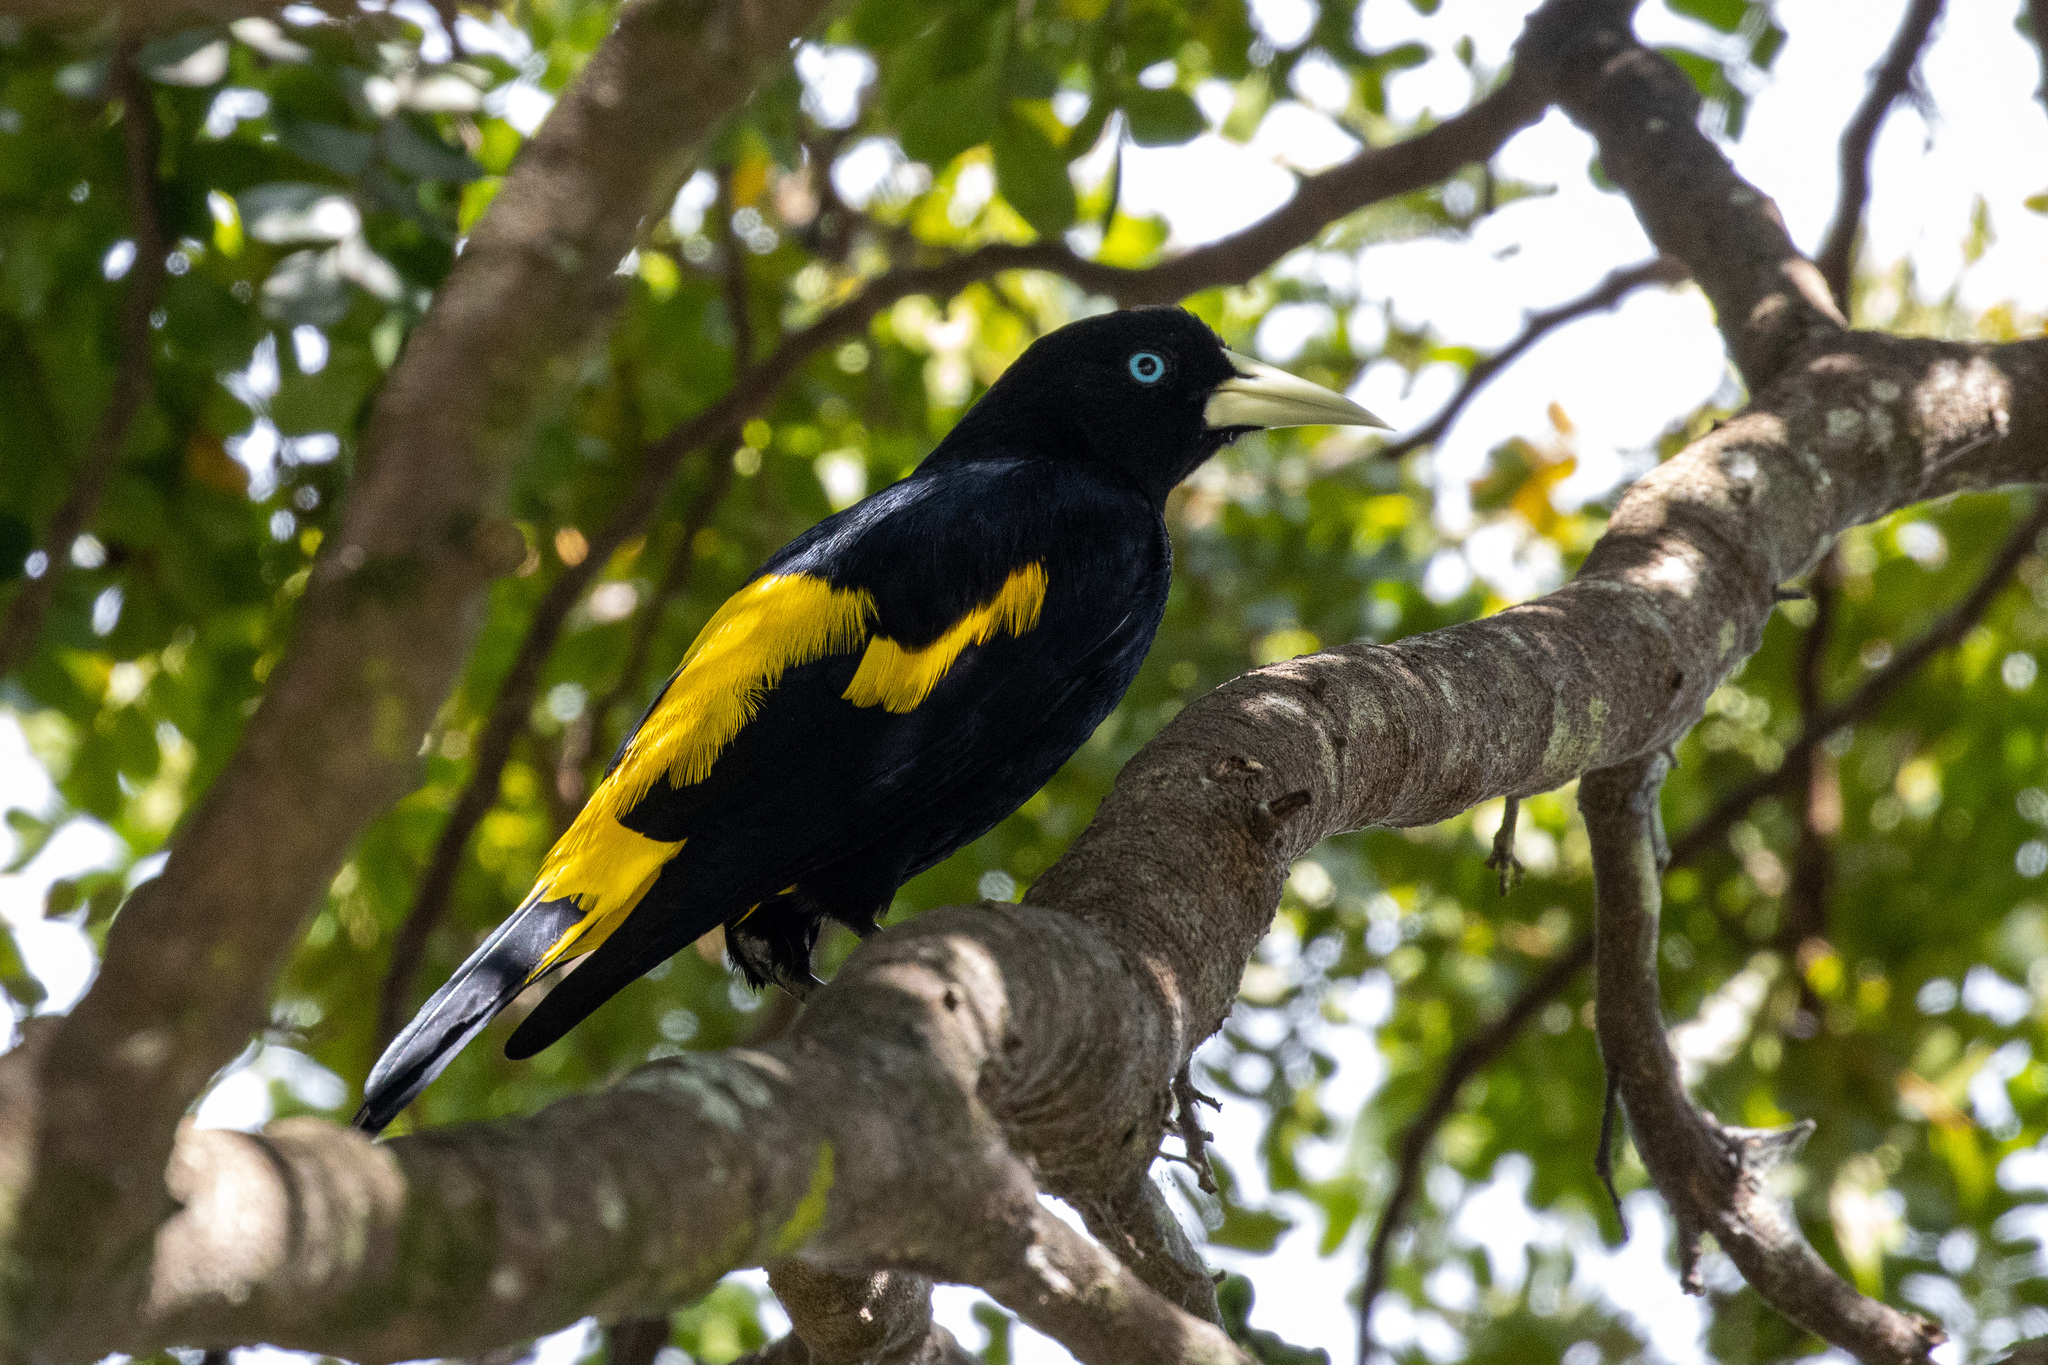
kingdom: Animalia
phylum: Chordata
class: Aves
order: Passeriformes
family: Icteridae
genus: Cacicus
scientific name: Cacicus cela
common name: Yellow-rumped cacique
